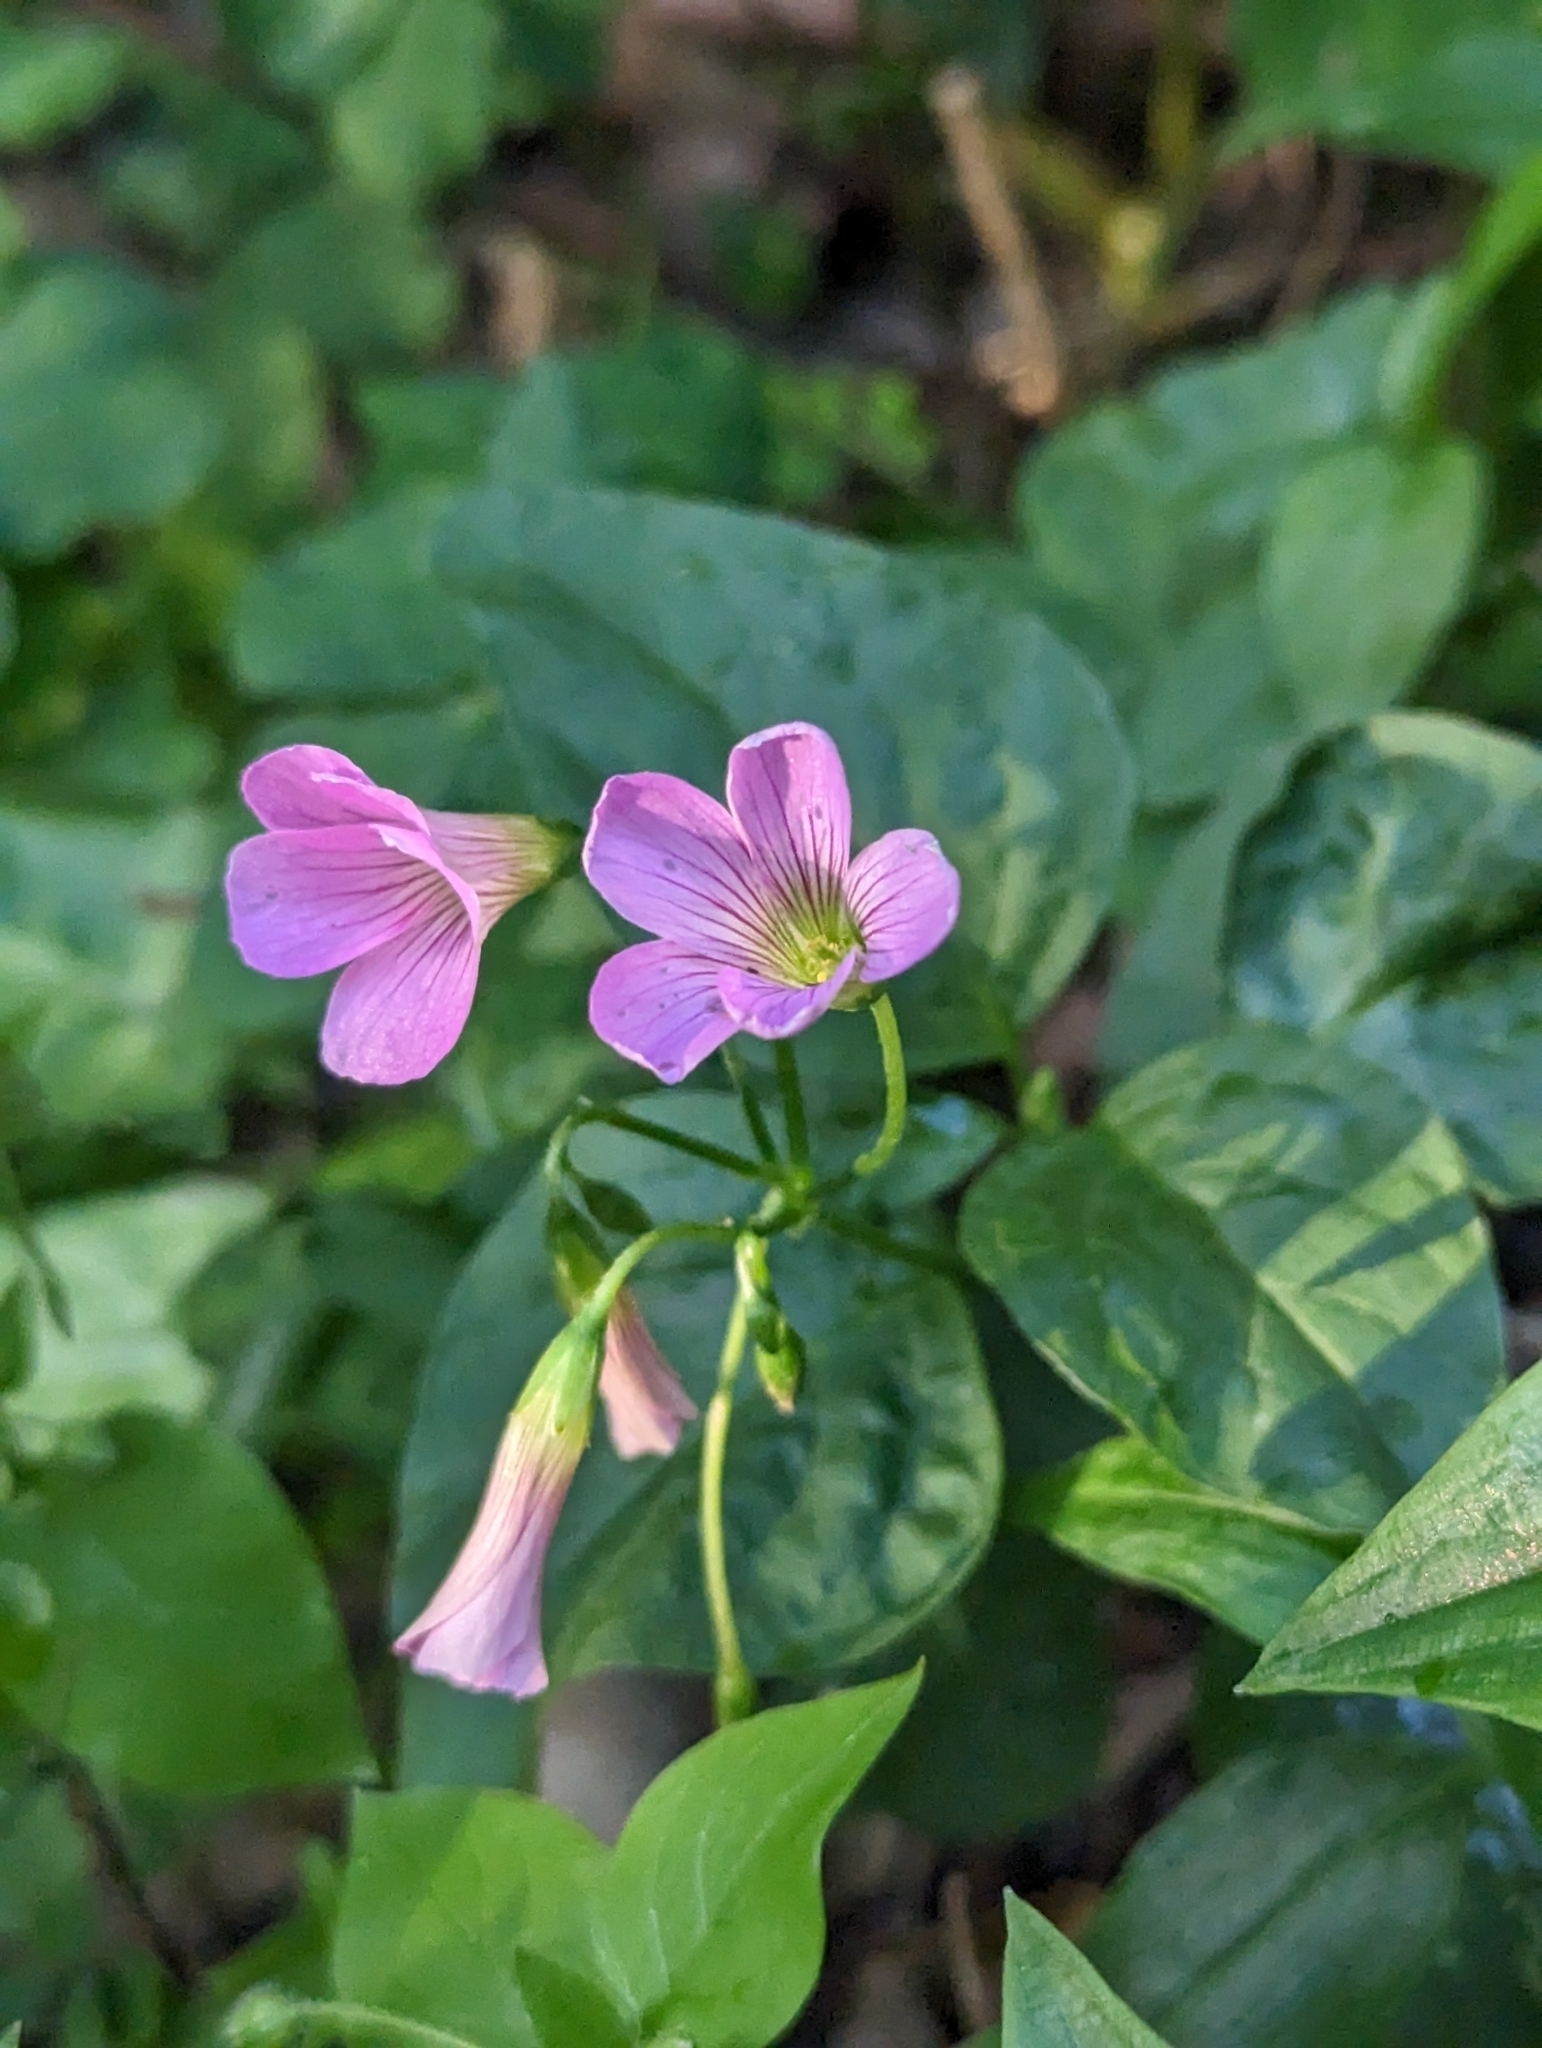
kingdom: Plantae
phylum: Tracheophyta
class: Magnoliopsida
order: Oxalidales
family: Oxalidaceae
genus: Oxalis
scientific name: Oxalis debilis
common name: Large-flowered pink-sorrel
